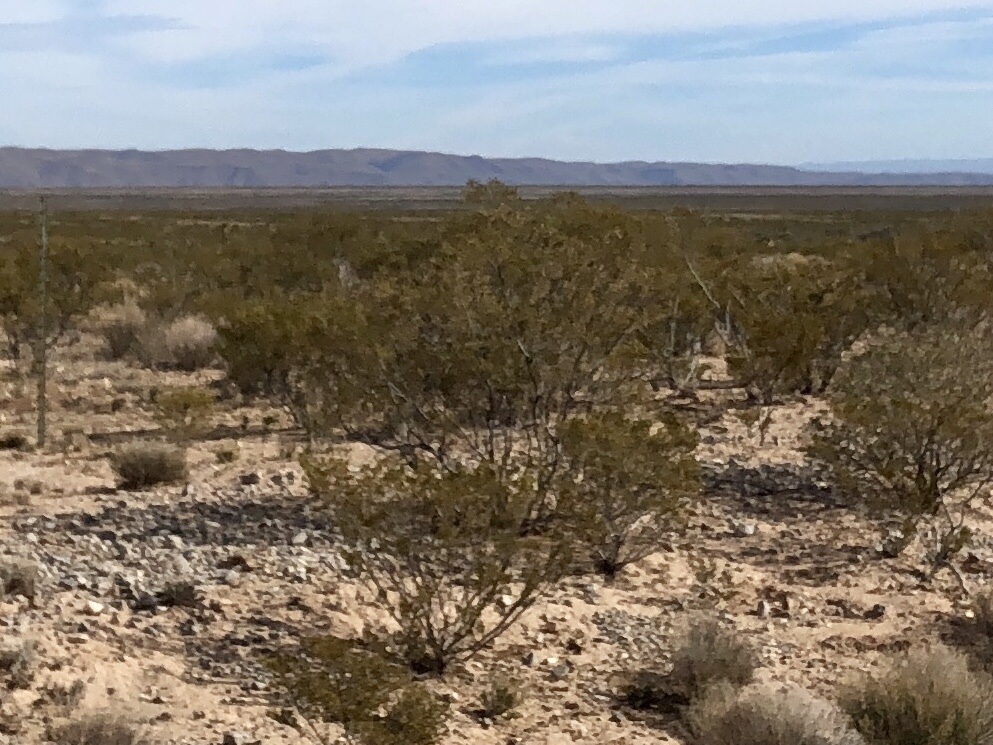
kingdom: Plantae
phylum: Tracheophyta
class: Magnoliopsida
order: Zygophyllales
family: Zygophyllaceae
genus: Larrea
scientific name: Larrea tridentata
